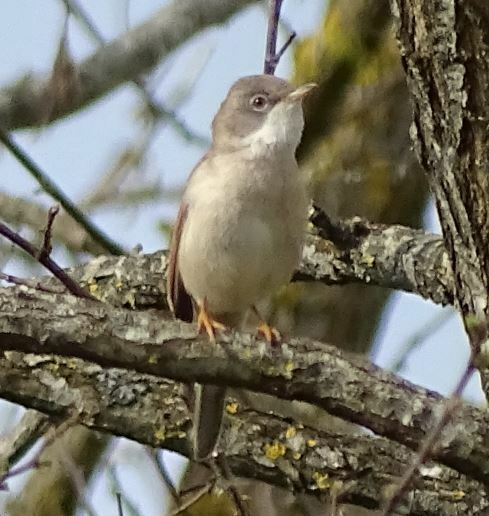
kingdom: Animalia
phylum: Chordata
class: Aves
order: Passeriformes
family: Sylviidae
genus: Sylvia
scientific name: Sylvia communis
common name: Common whitethroat
